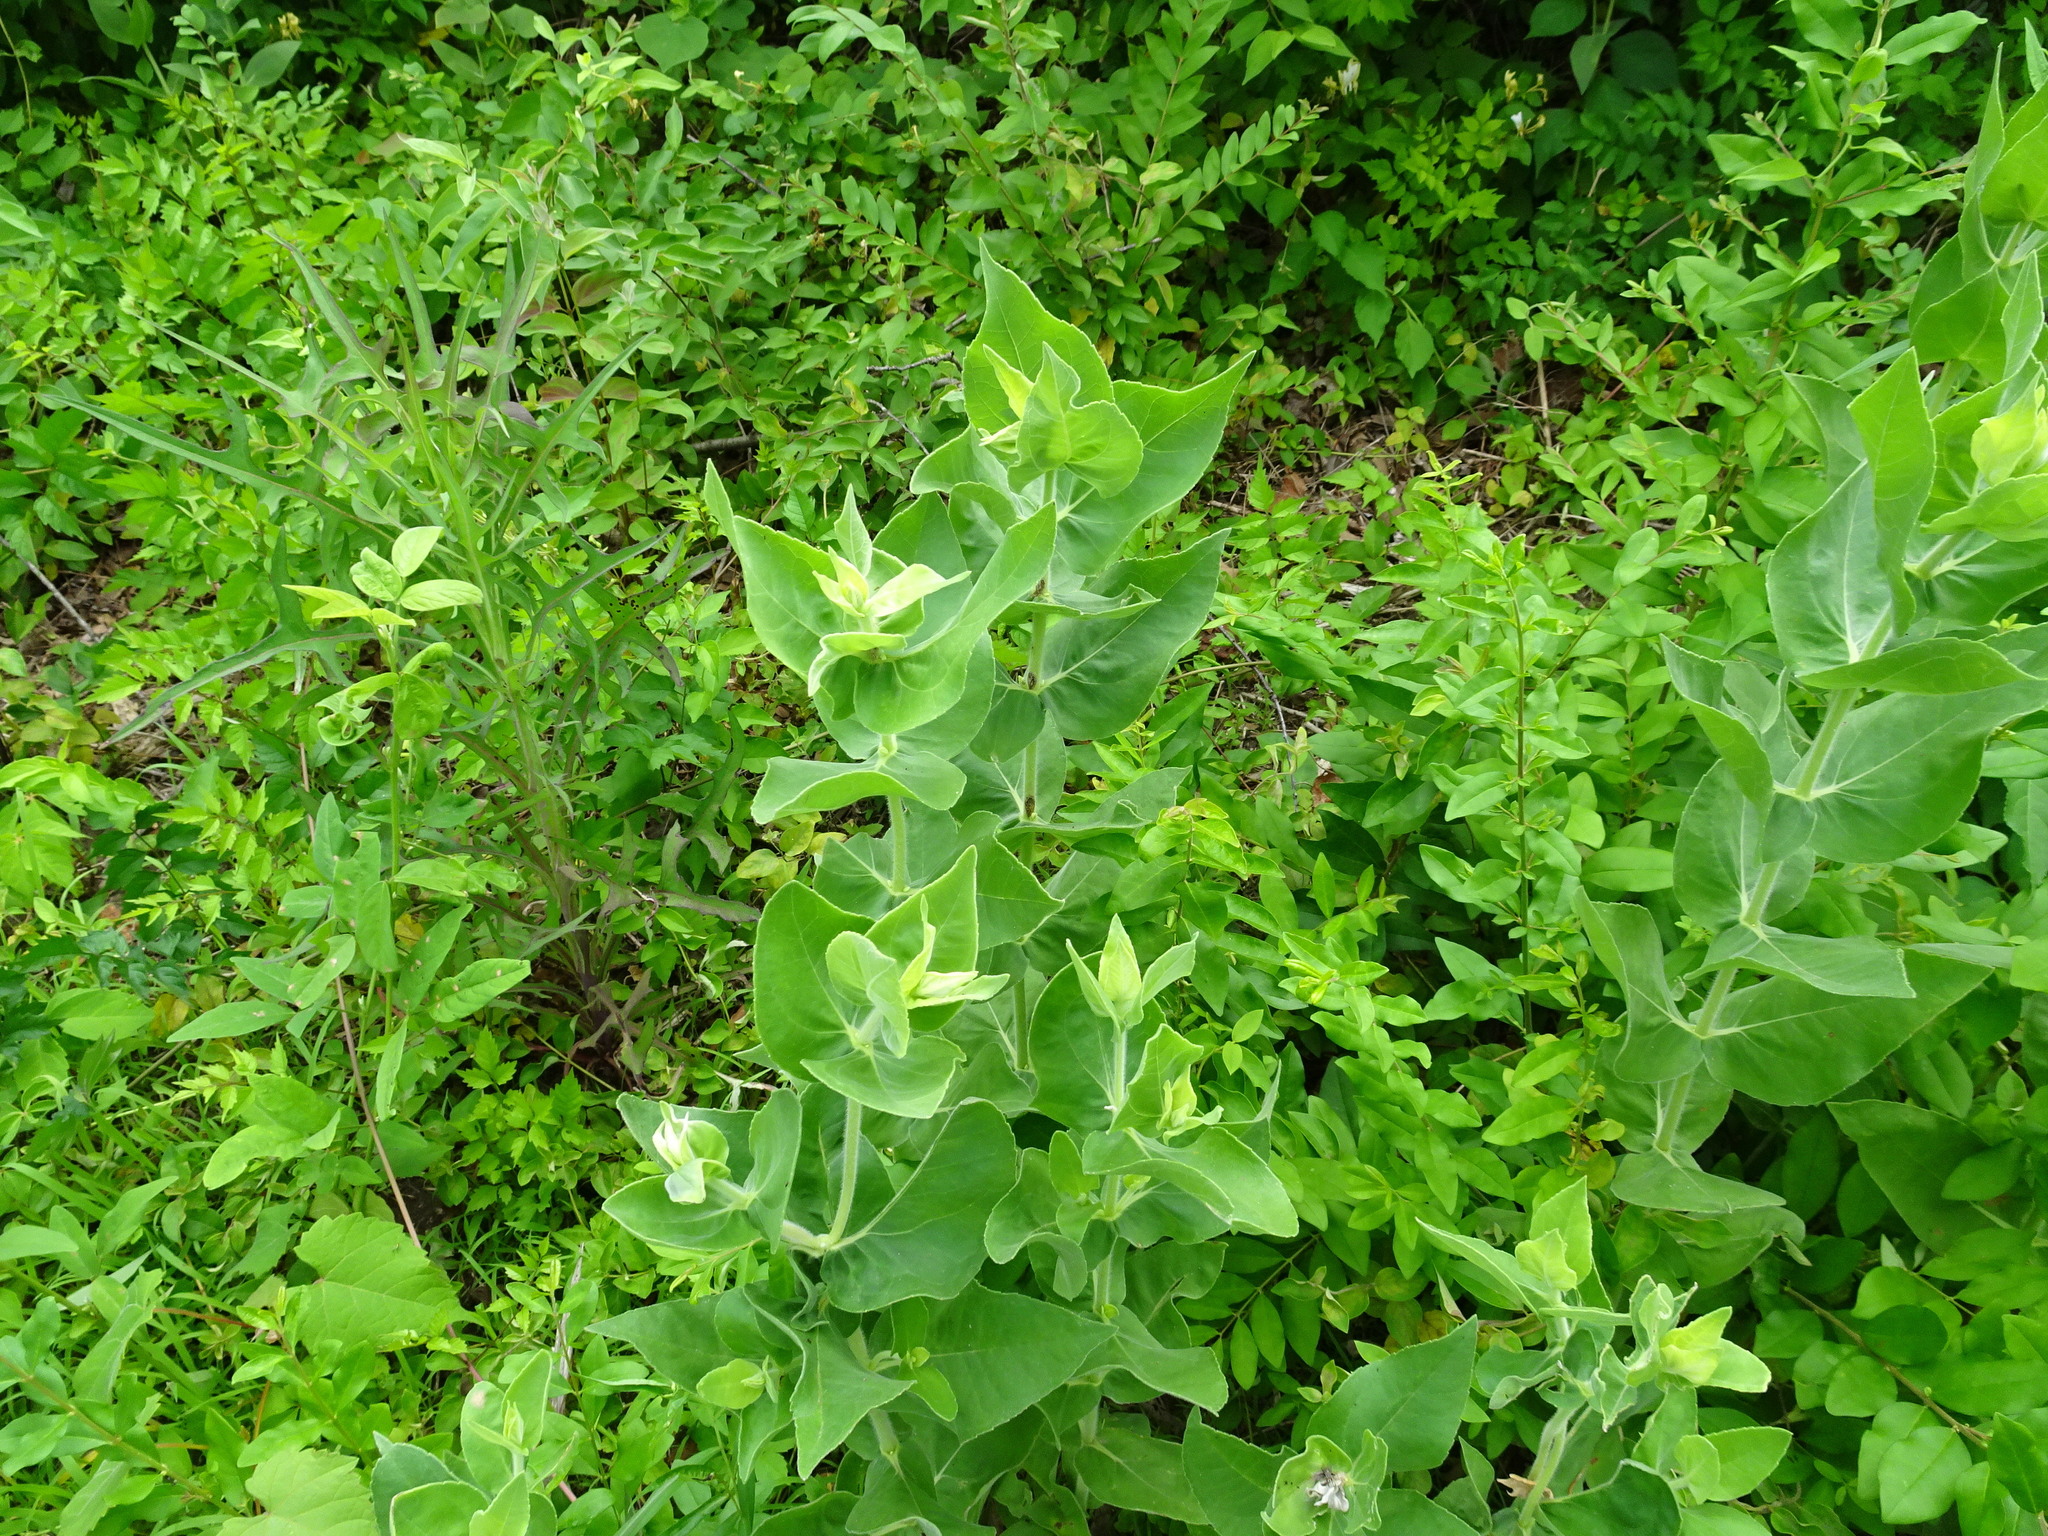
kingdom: Plantae
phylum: Tracheophyta
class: Magnoliopsida
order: Asterales
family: Asteraceae
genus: Helianthus
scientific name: Helianthus mollis
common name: Ashy sunflower
